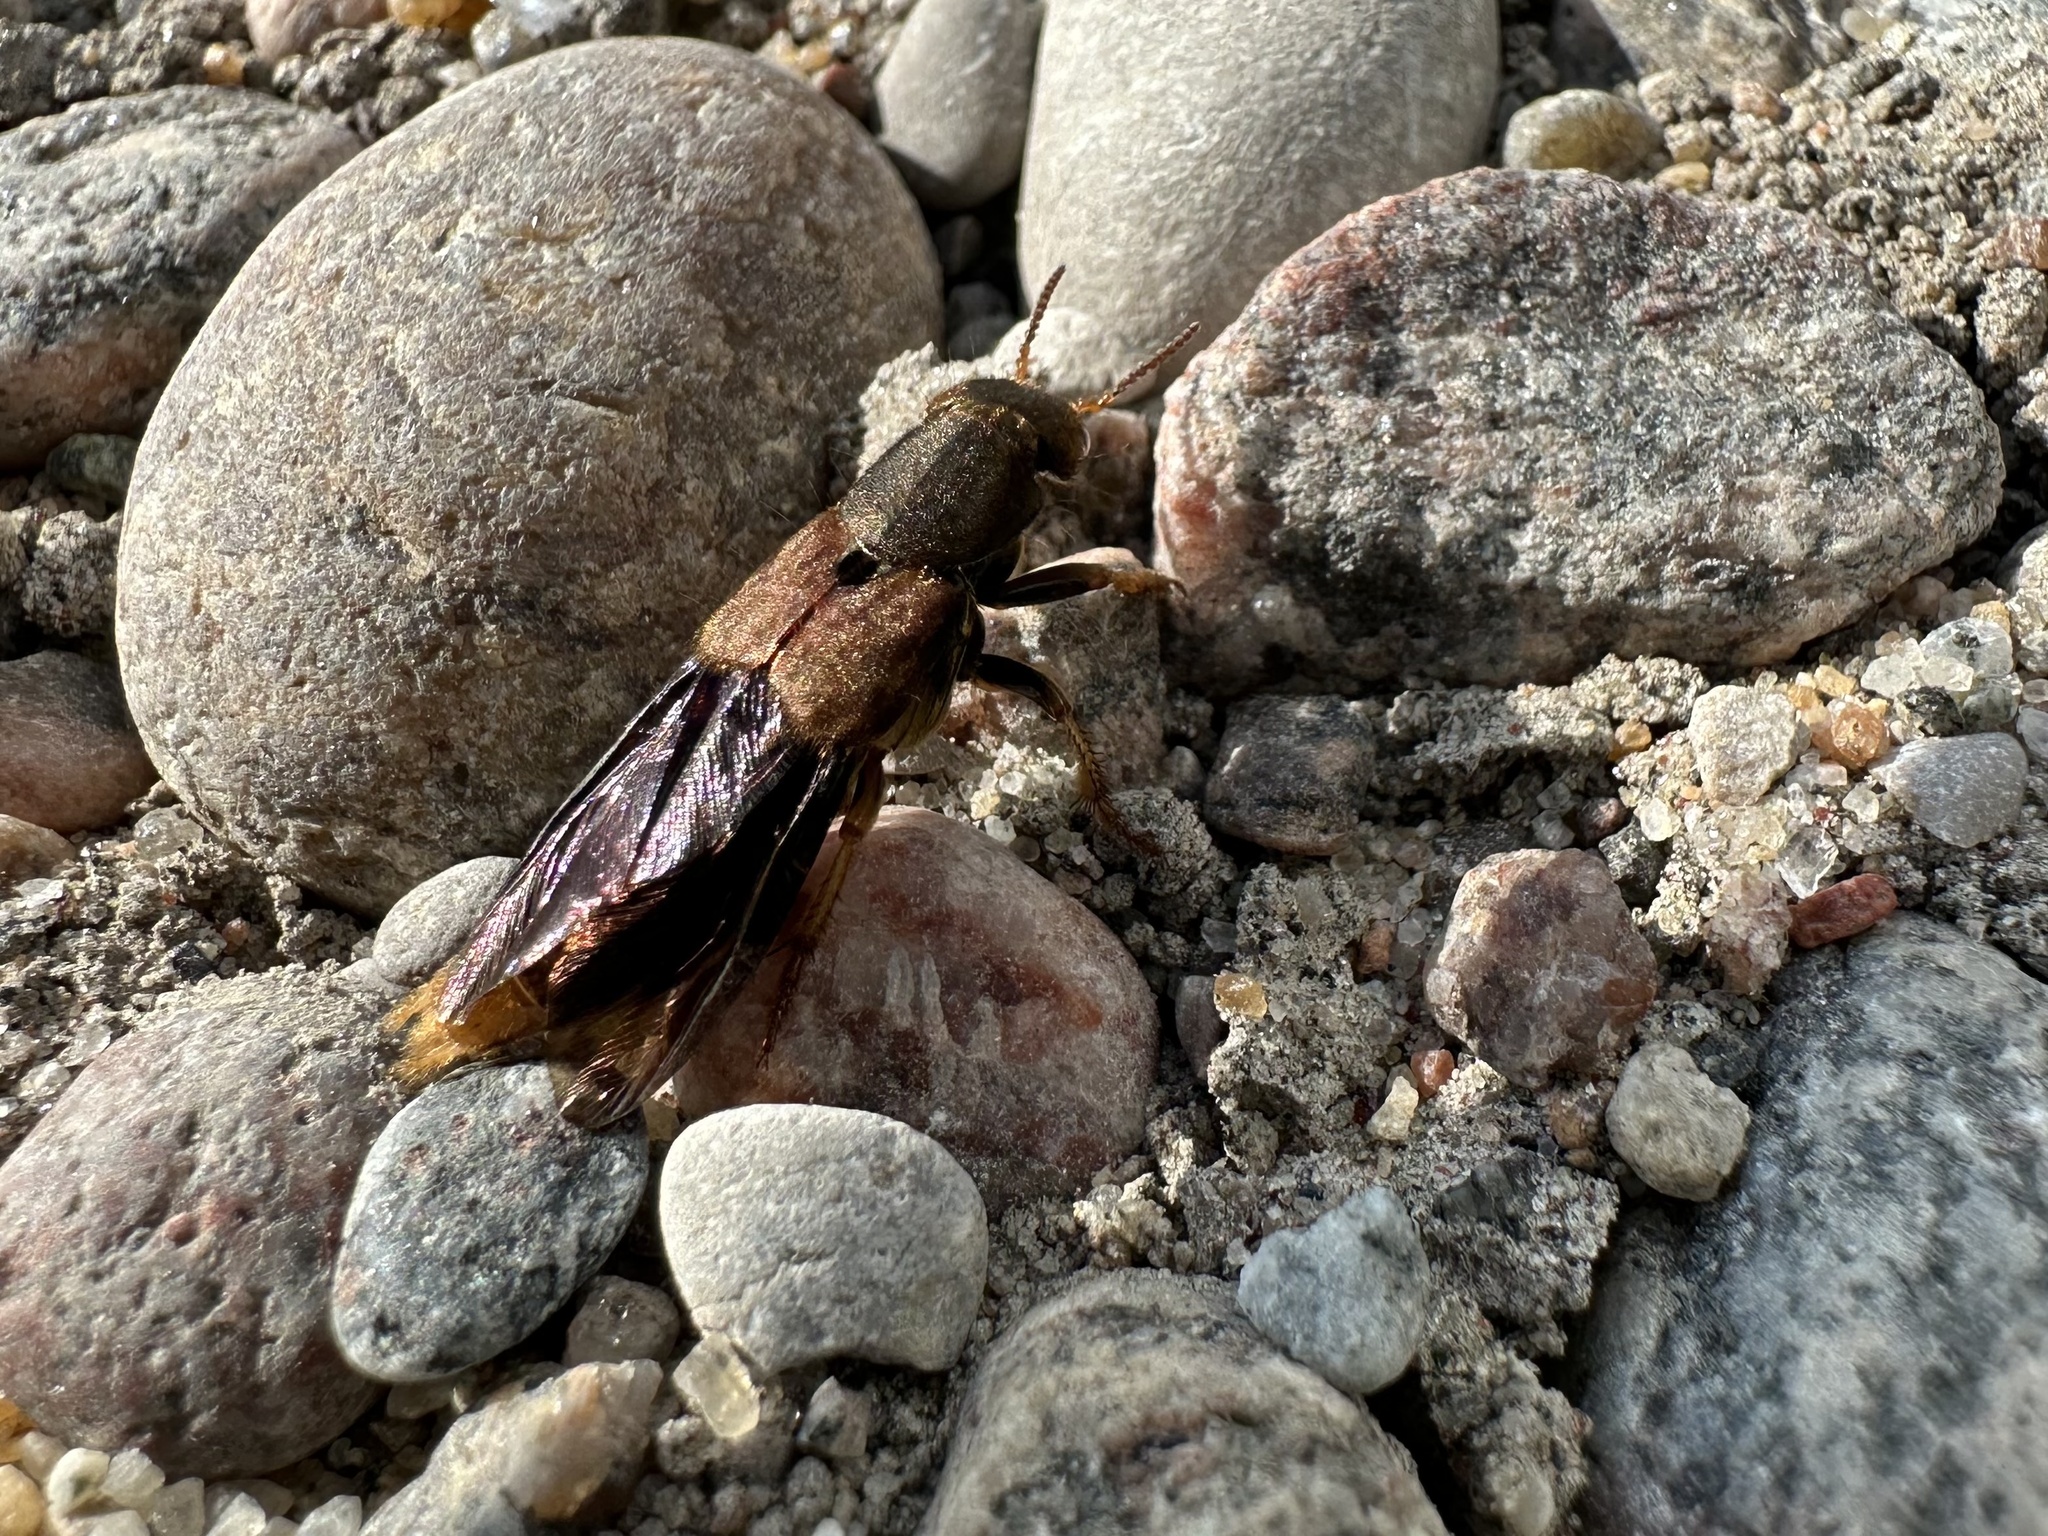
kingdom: Animalia
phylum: Arthropoda
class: Insecta
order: Coleoptera
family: Staphylinidae
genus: Platydracus
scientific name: Platydracus maculosus
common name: Brown rove beetle
